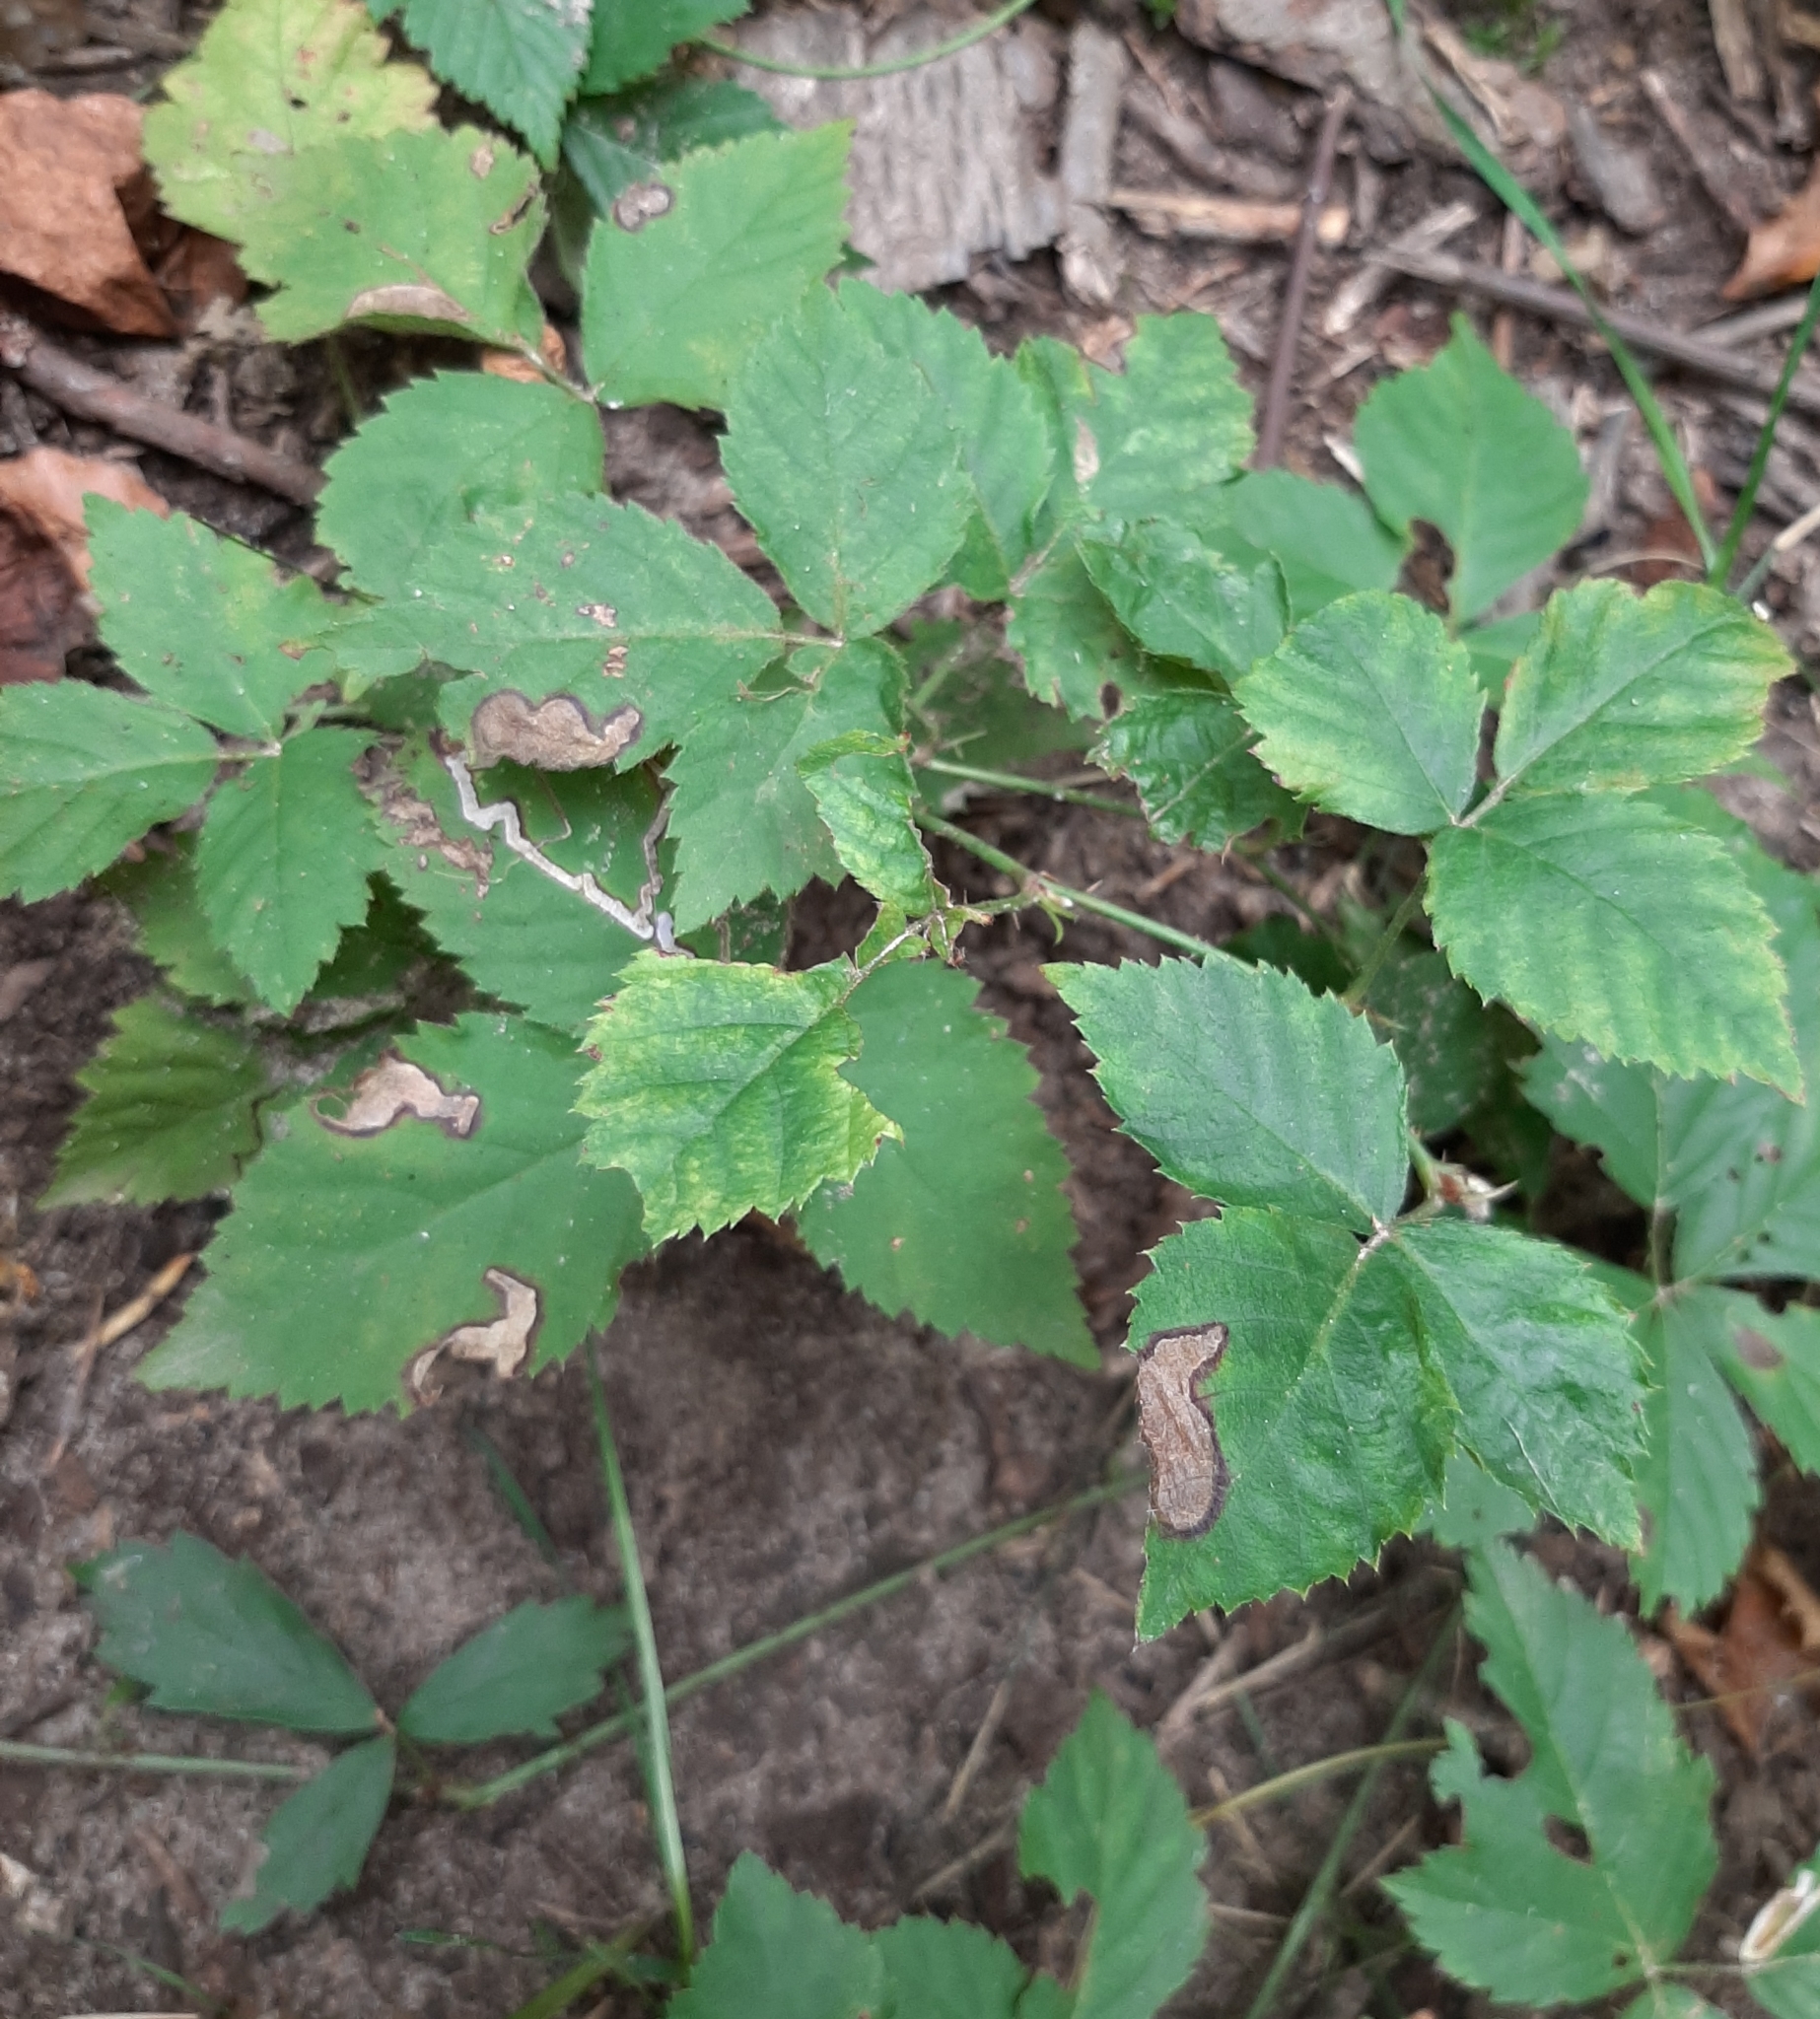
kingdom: Animalia
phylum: Arthropoda
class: Insecta
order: Lepidoptera
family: Nepticulidae
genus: Stigmella
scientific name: Stigmella villosella
